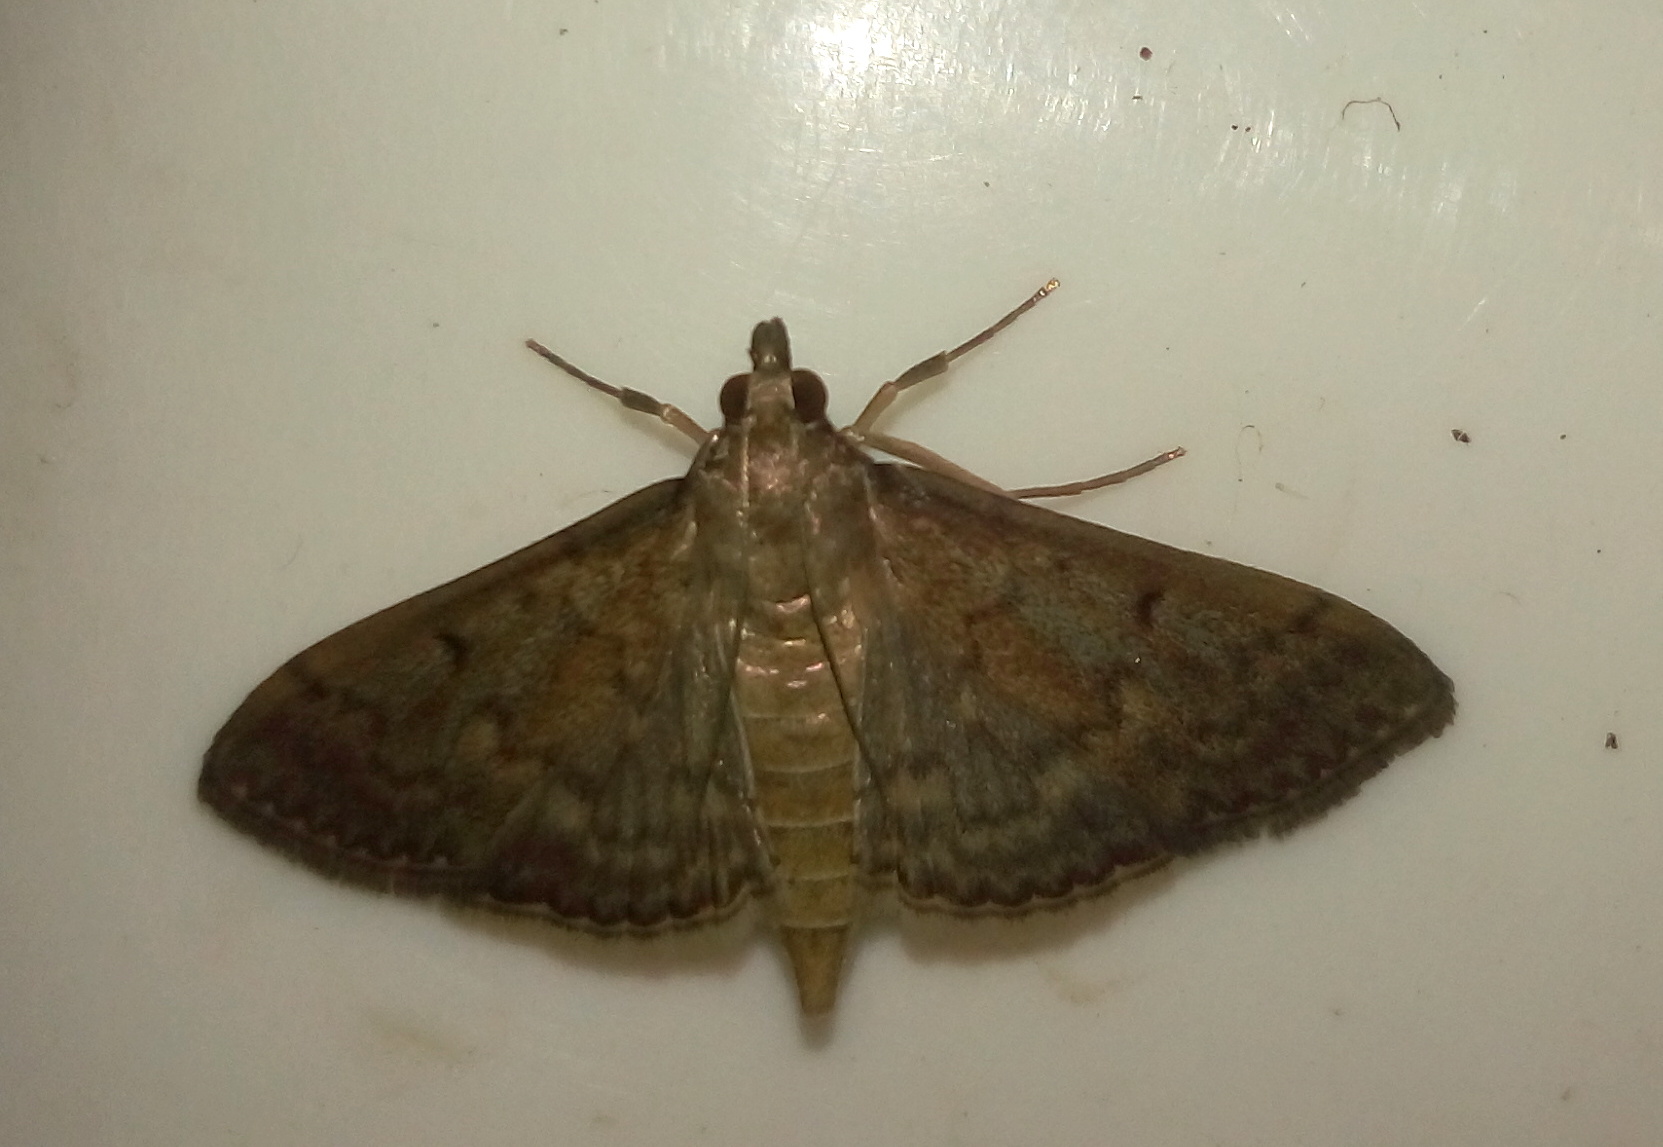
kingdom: Animalia
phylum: Arthropoda
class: Insecta
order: Lepidoptera
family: Crambidae
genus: Herpetogramma
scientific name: Herpetogramma licarsisalis
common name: Grass webworm
